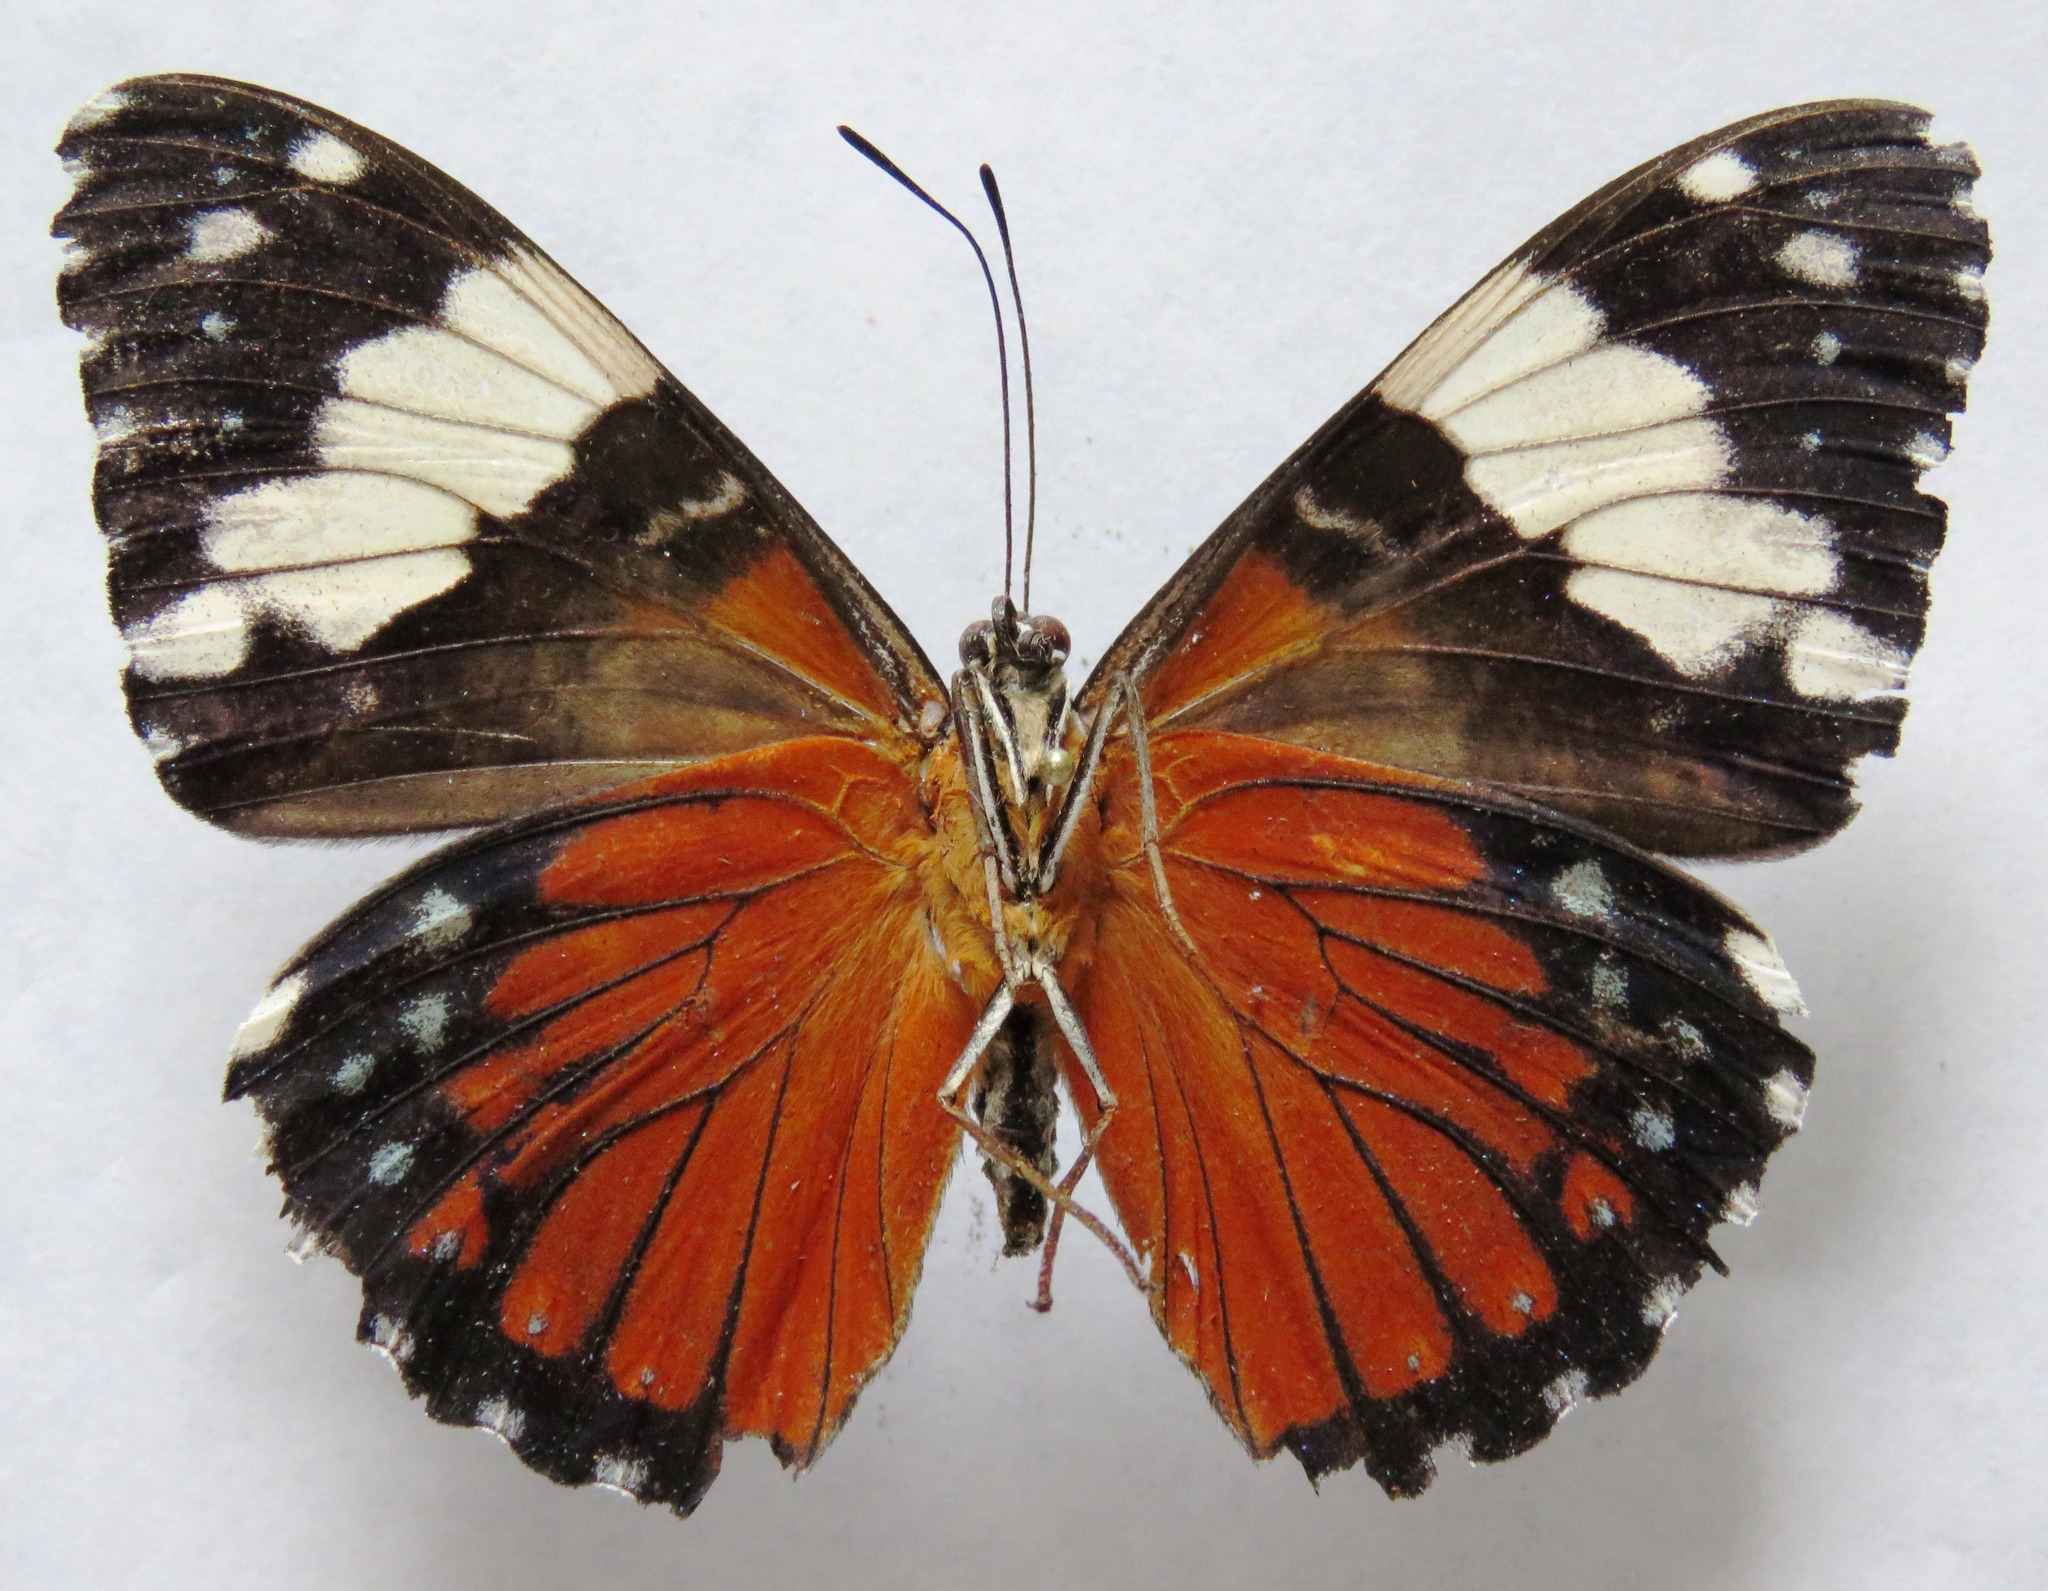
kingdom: Animalia
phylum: Arthropoda
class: Insecta
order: Lepidoptera
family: Nymphalidae
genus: Hamadryas
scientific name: Hamadryas amphinome
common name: Red cracker
